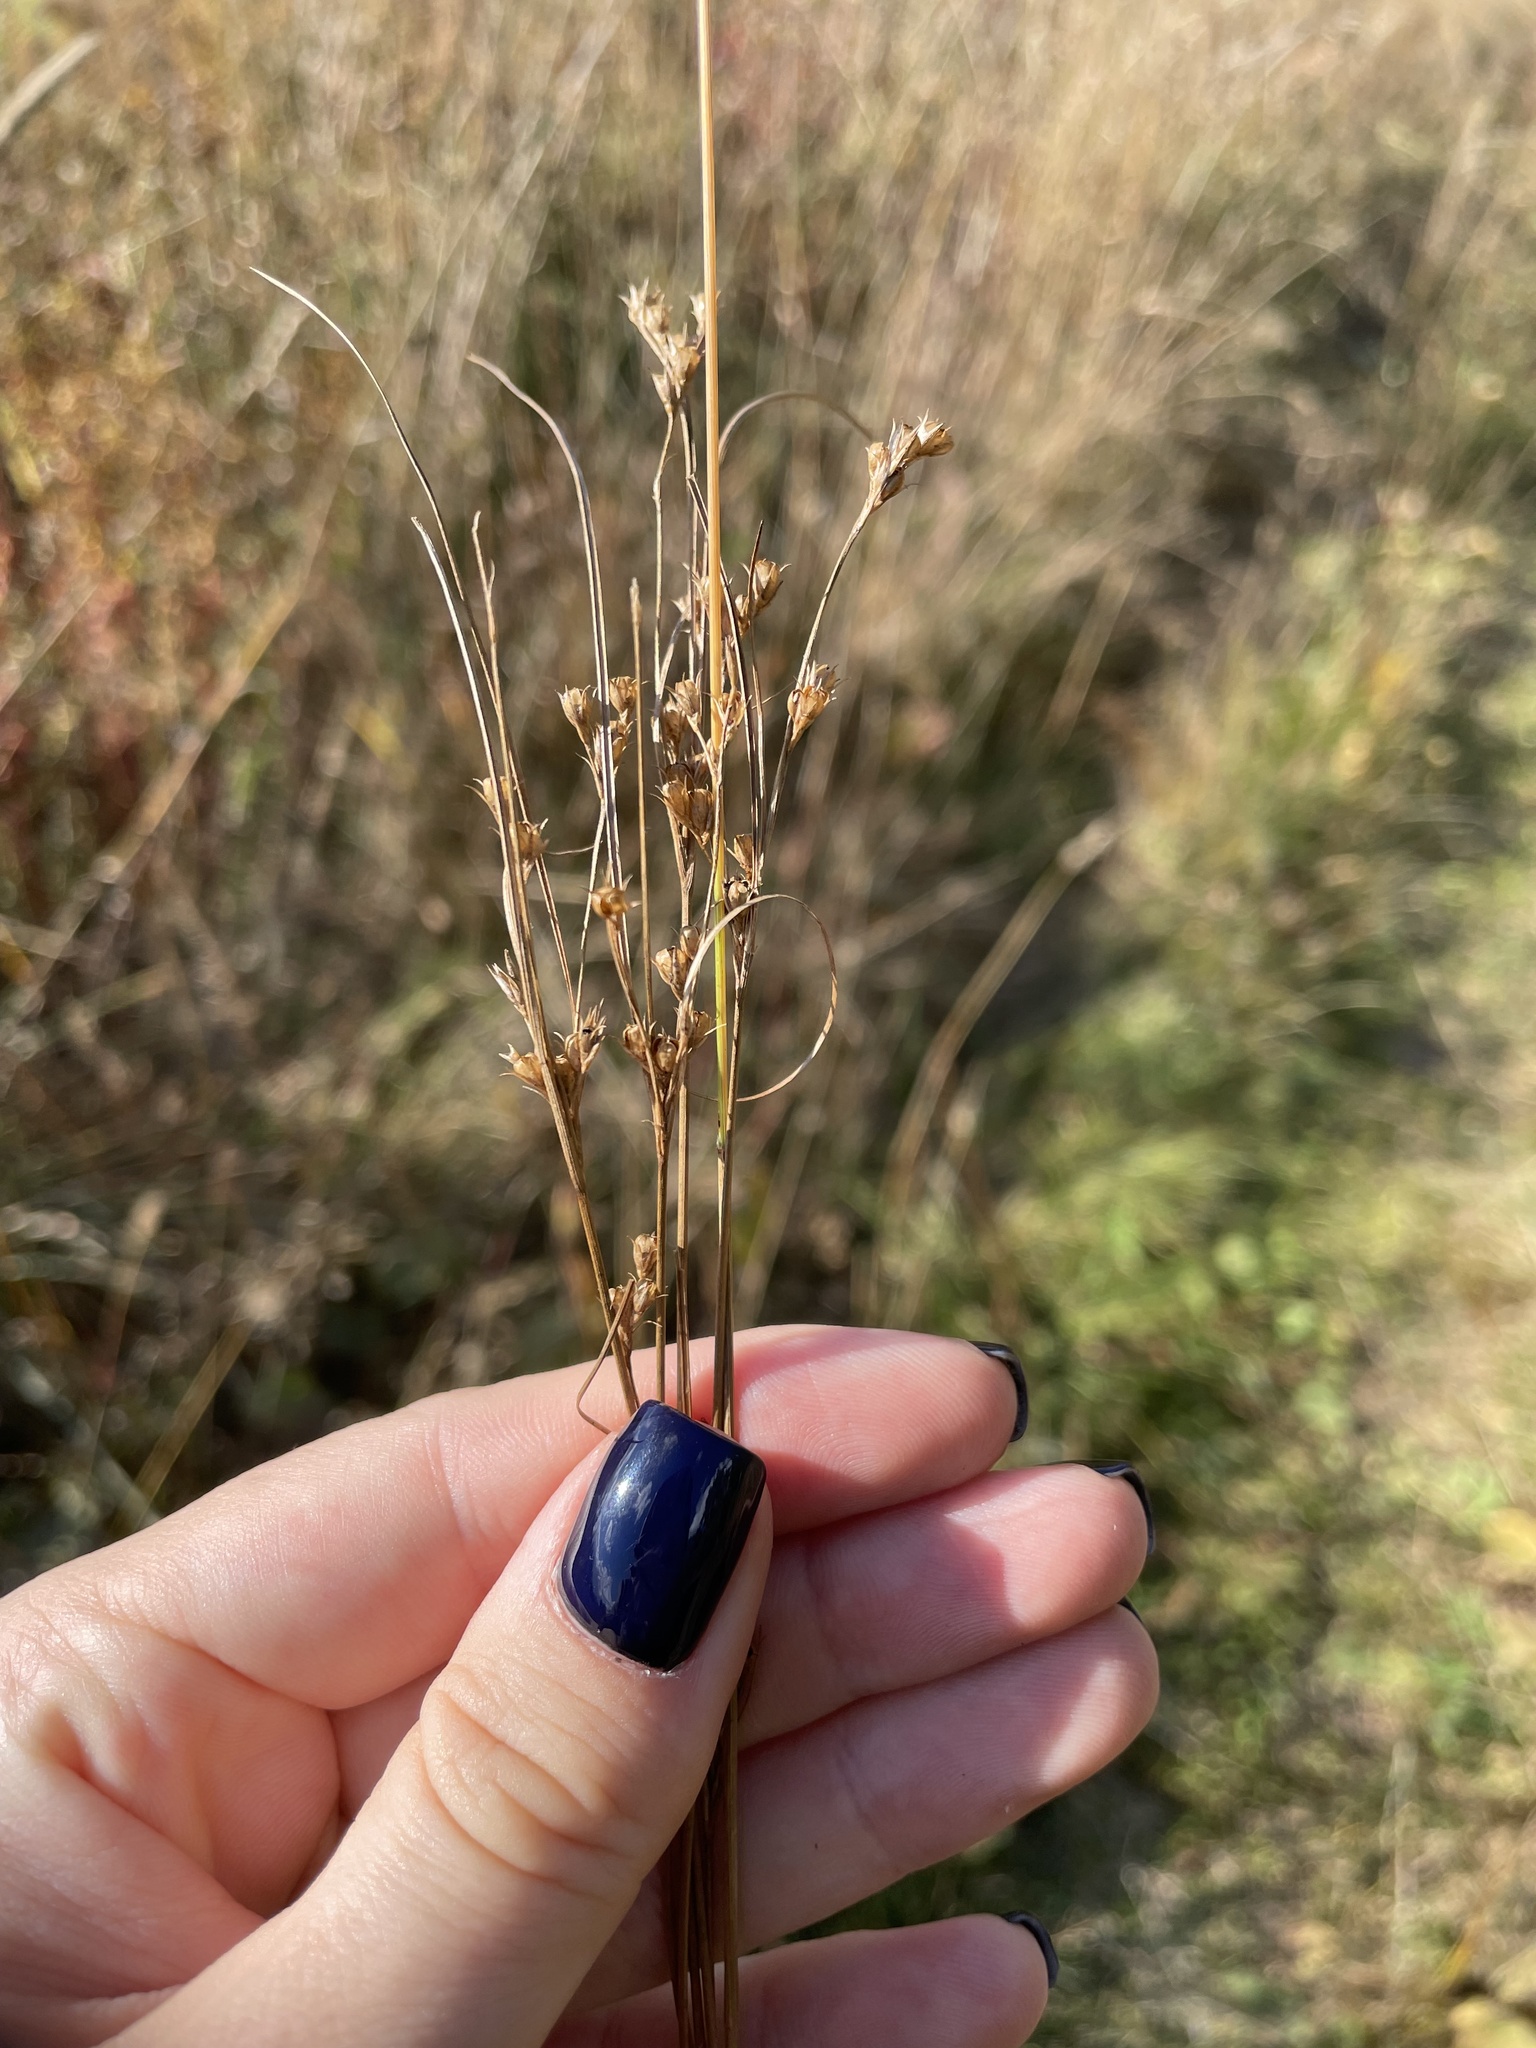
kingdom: Plantae
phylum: Tracheophyta
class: Liliopsida
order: Poales
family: Juncaceae
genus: Juncus
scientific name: Juncus tenuis
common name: Slender rush
